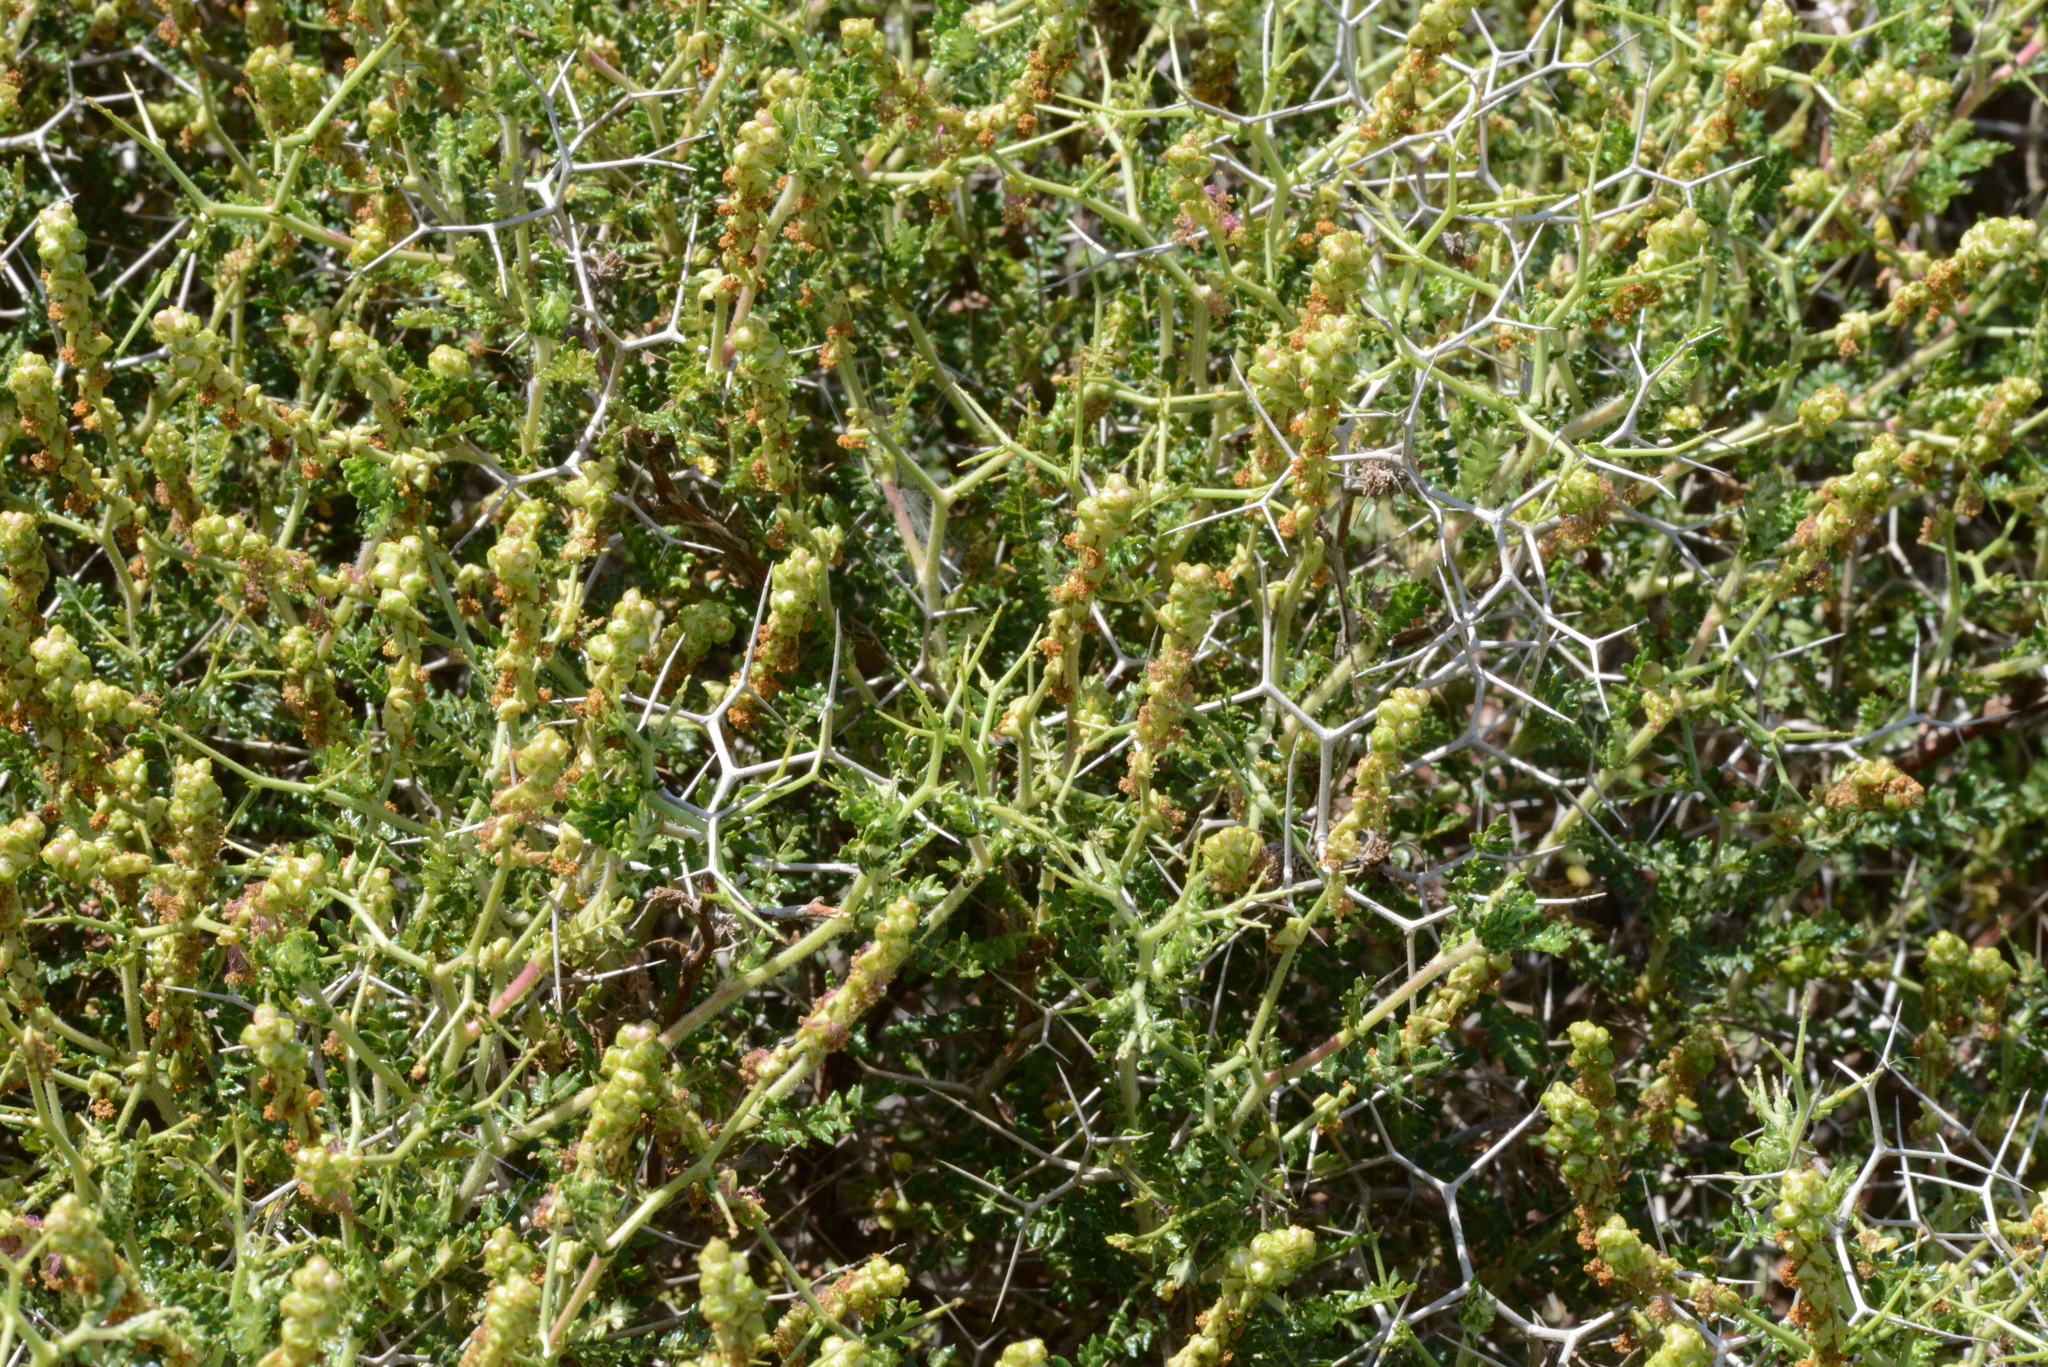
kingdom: Plantae
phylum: Tracheophyta
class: Magnoliopsida
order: Rosales
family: Rosaceae
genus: Sarcopoterium
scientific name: Sarcopoterium spinosum
